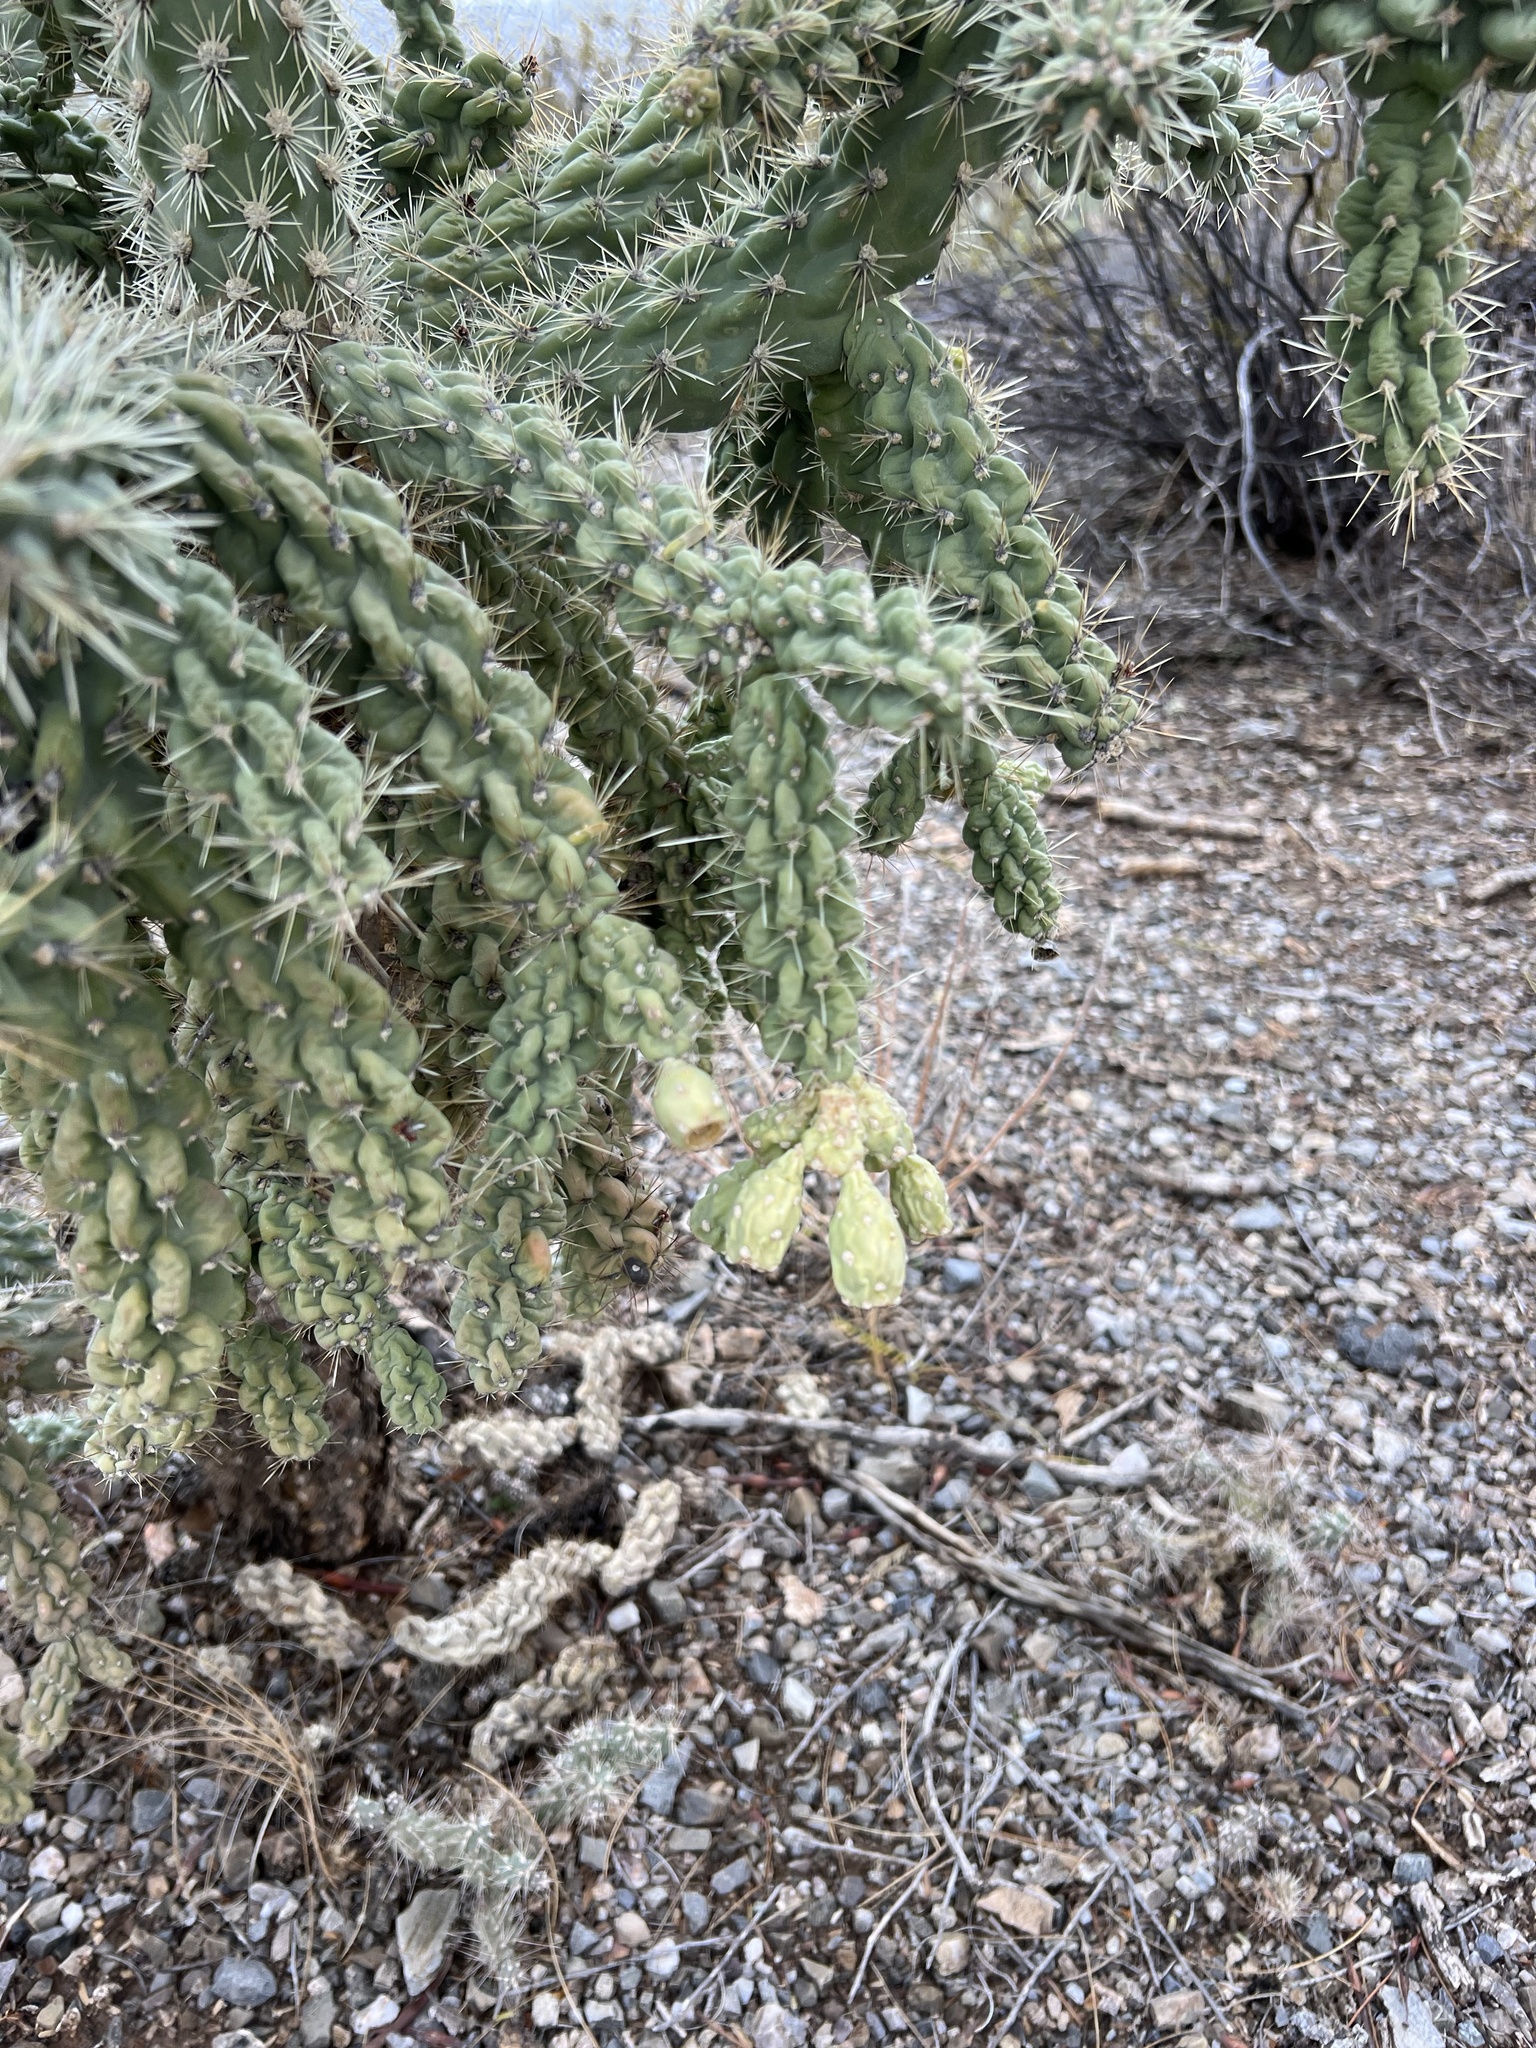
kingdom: Plantae
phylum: Tracheophyta
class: Magnoliopsida
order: Caryophyllales
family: Cactaceae
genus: Cylindropuntia
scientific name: Cylindropuntia fulgida
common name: Jumping cholla
